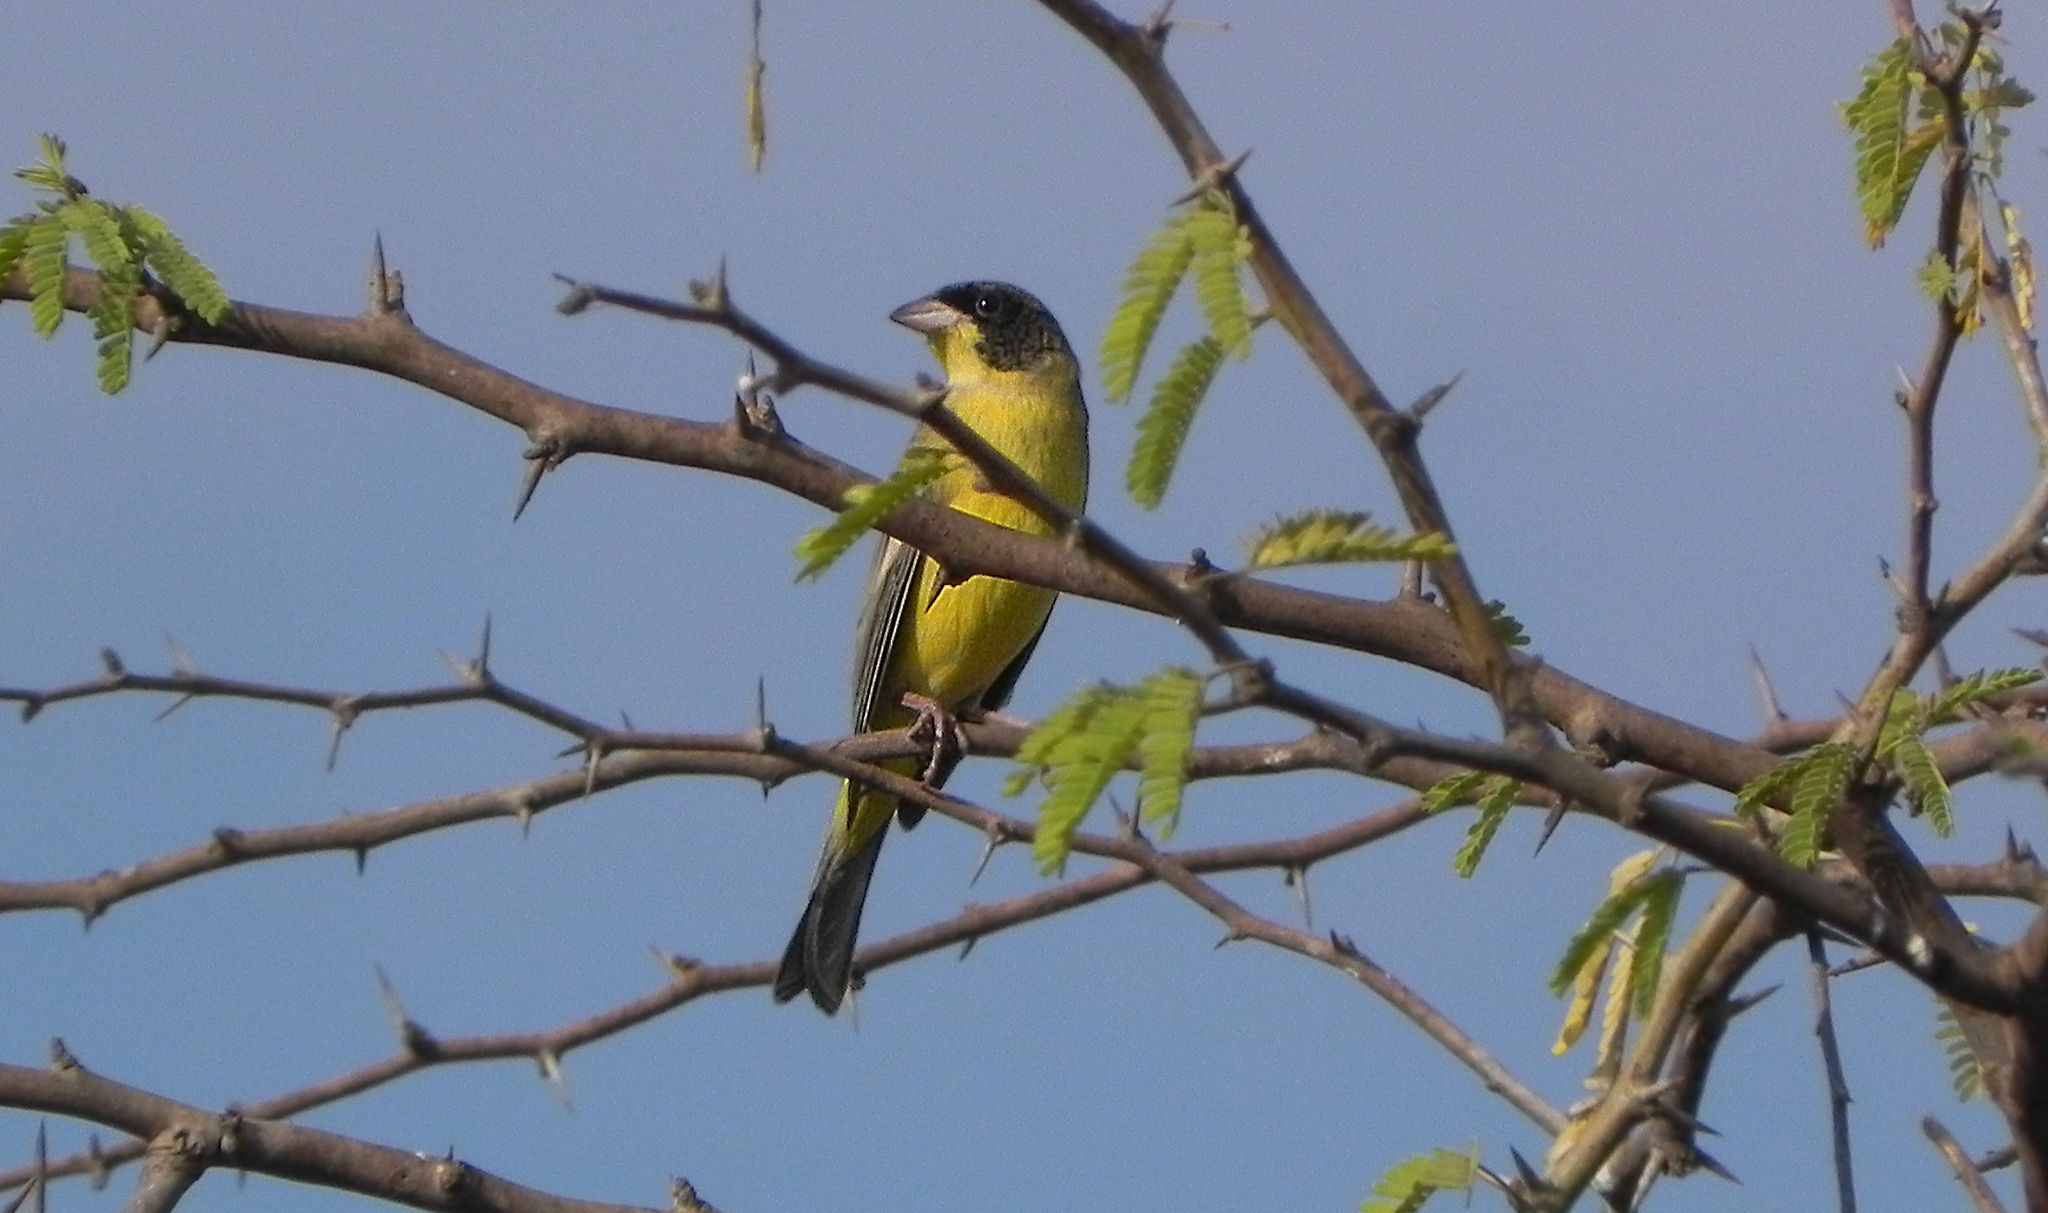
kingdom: Animalia
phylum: Chordata
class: Aves
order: Passeriformes
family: Emberizidae
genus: Emberiza
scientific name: Emberiza melanocephala
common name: Black-headed bunting
